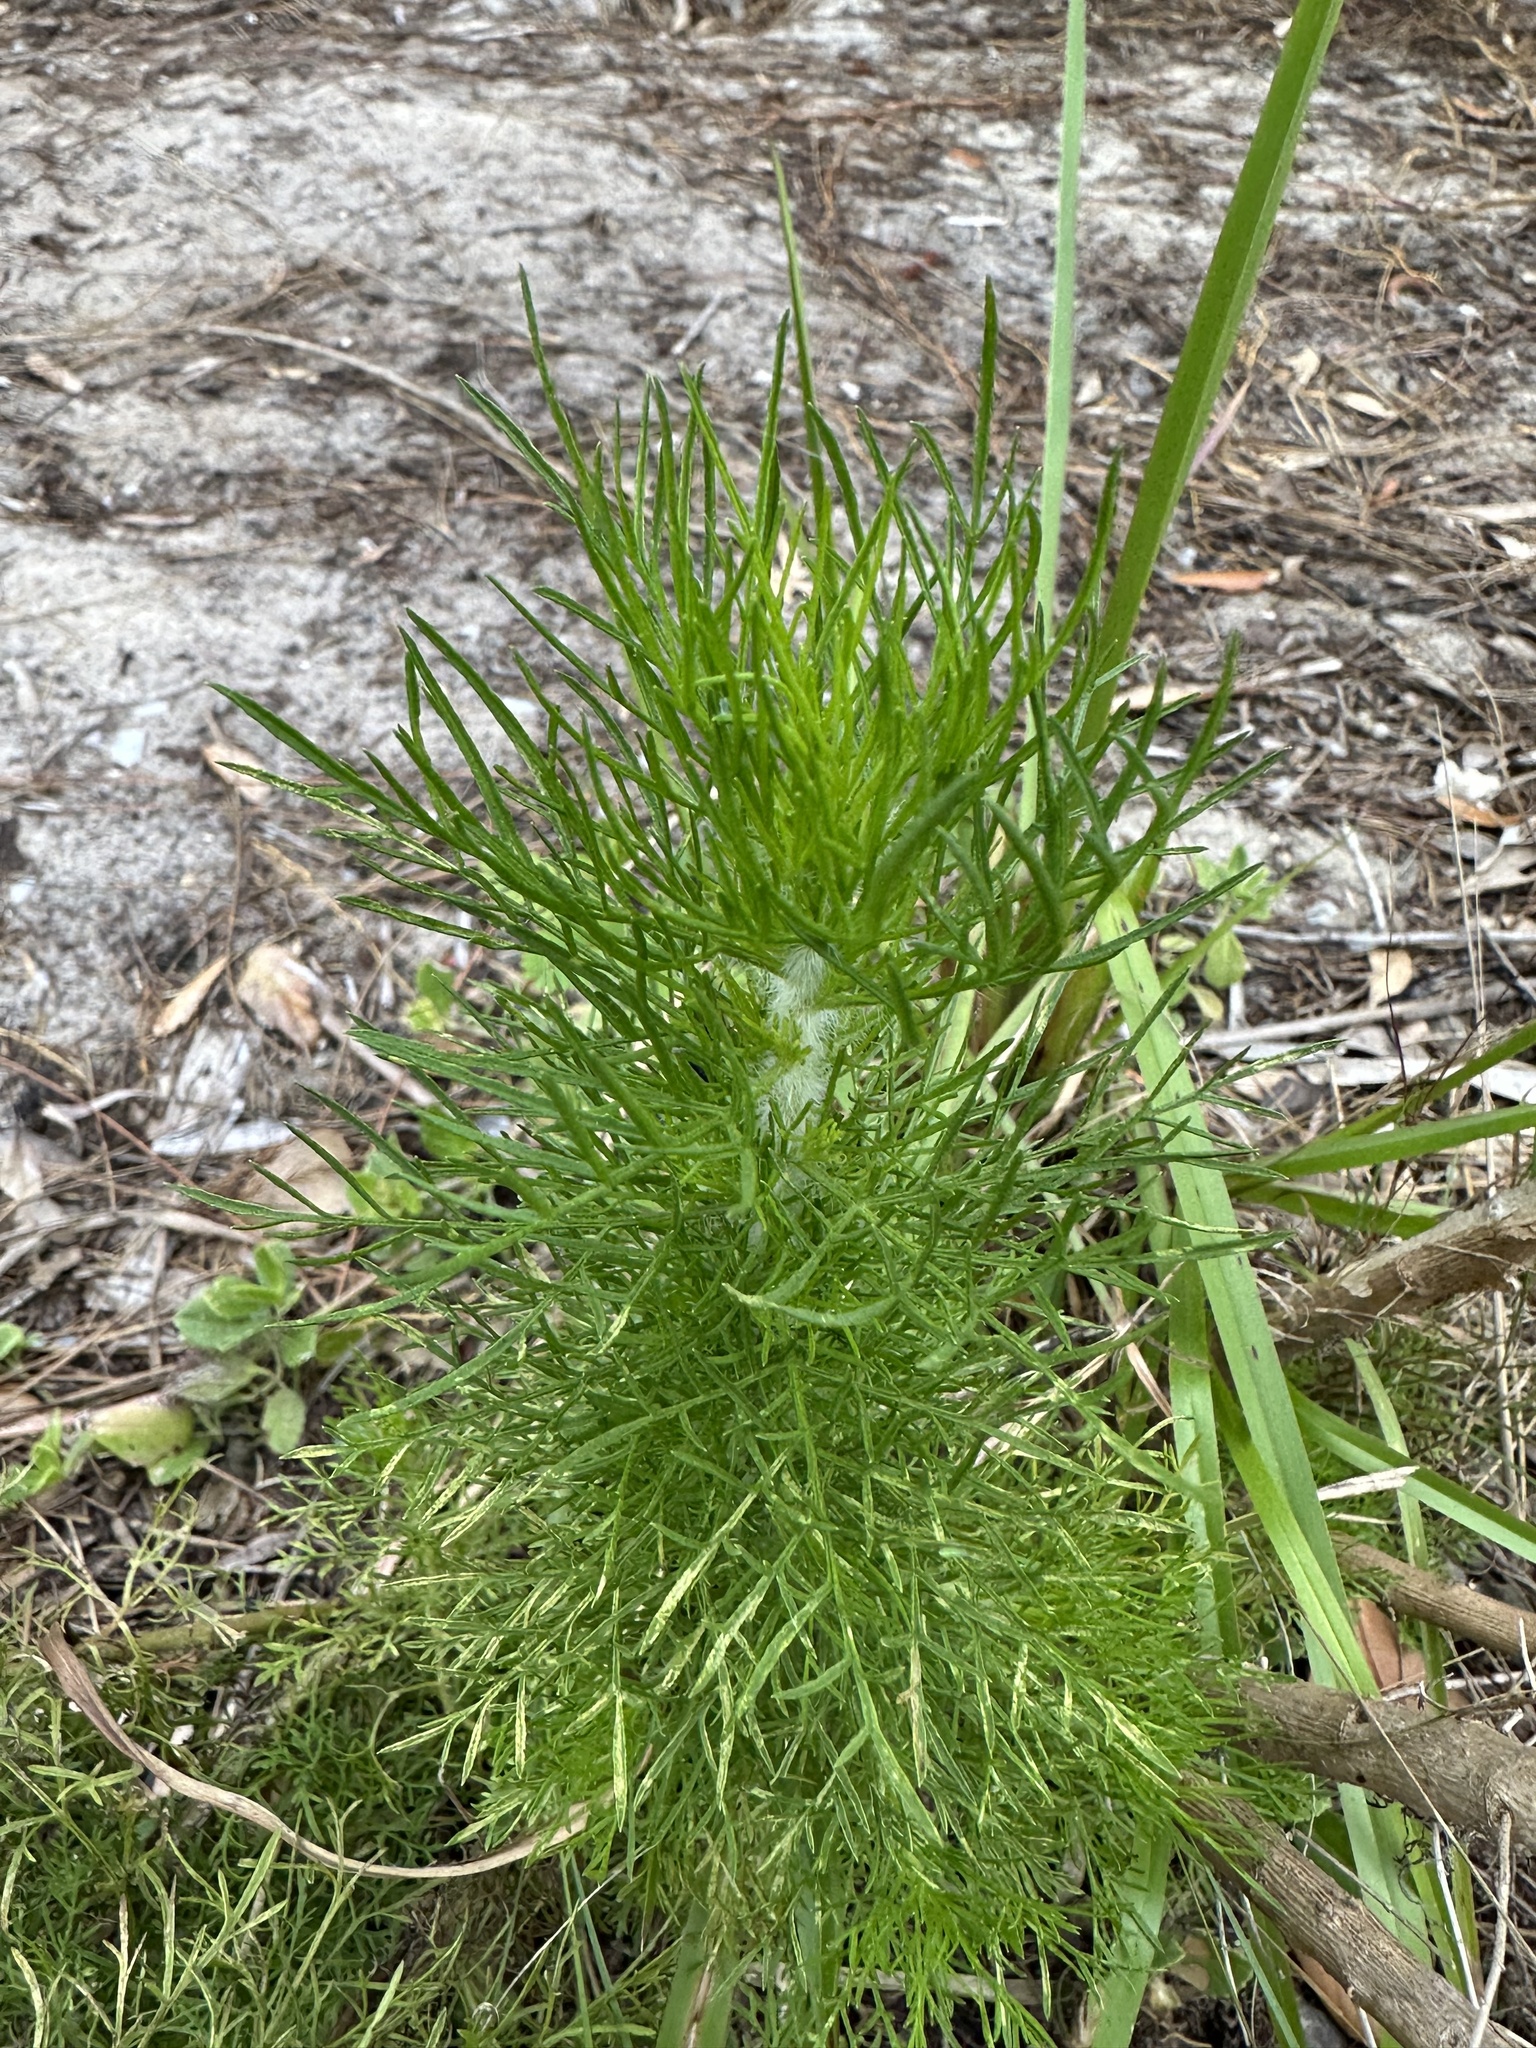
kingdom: Plantae
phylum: Tracheophyta
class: Magnoliopsida
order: Asterales
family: Asteraceae
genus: Eupatorium
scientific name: Eupatorium capillifolium
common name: Dog-fennel
